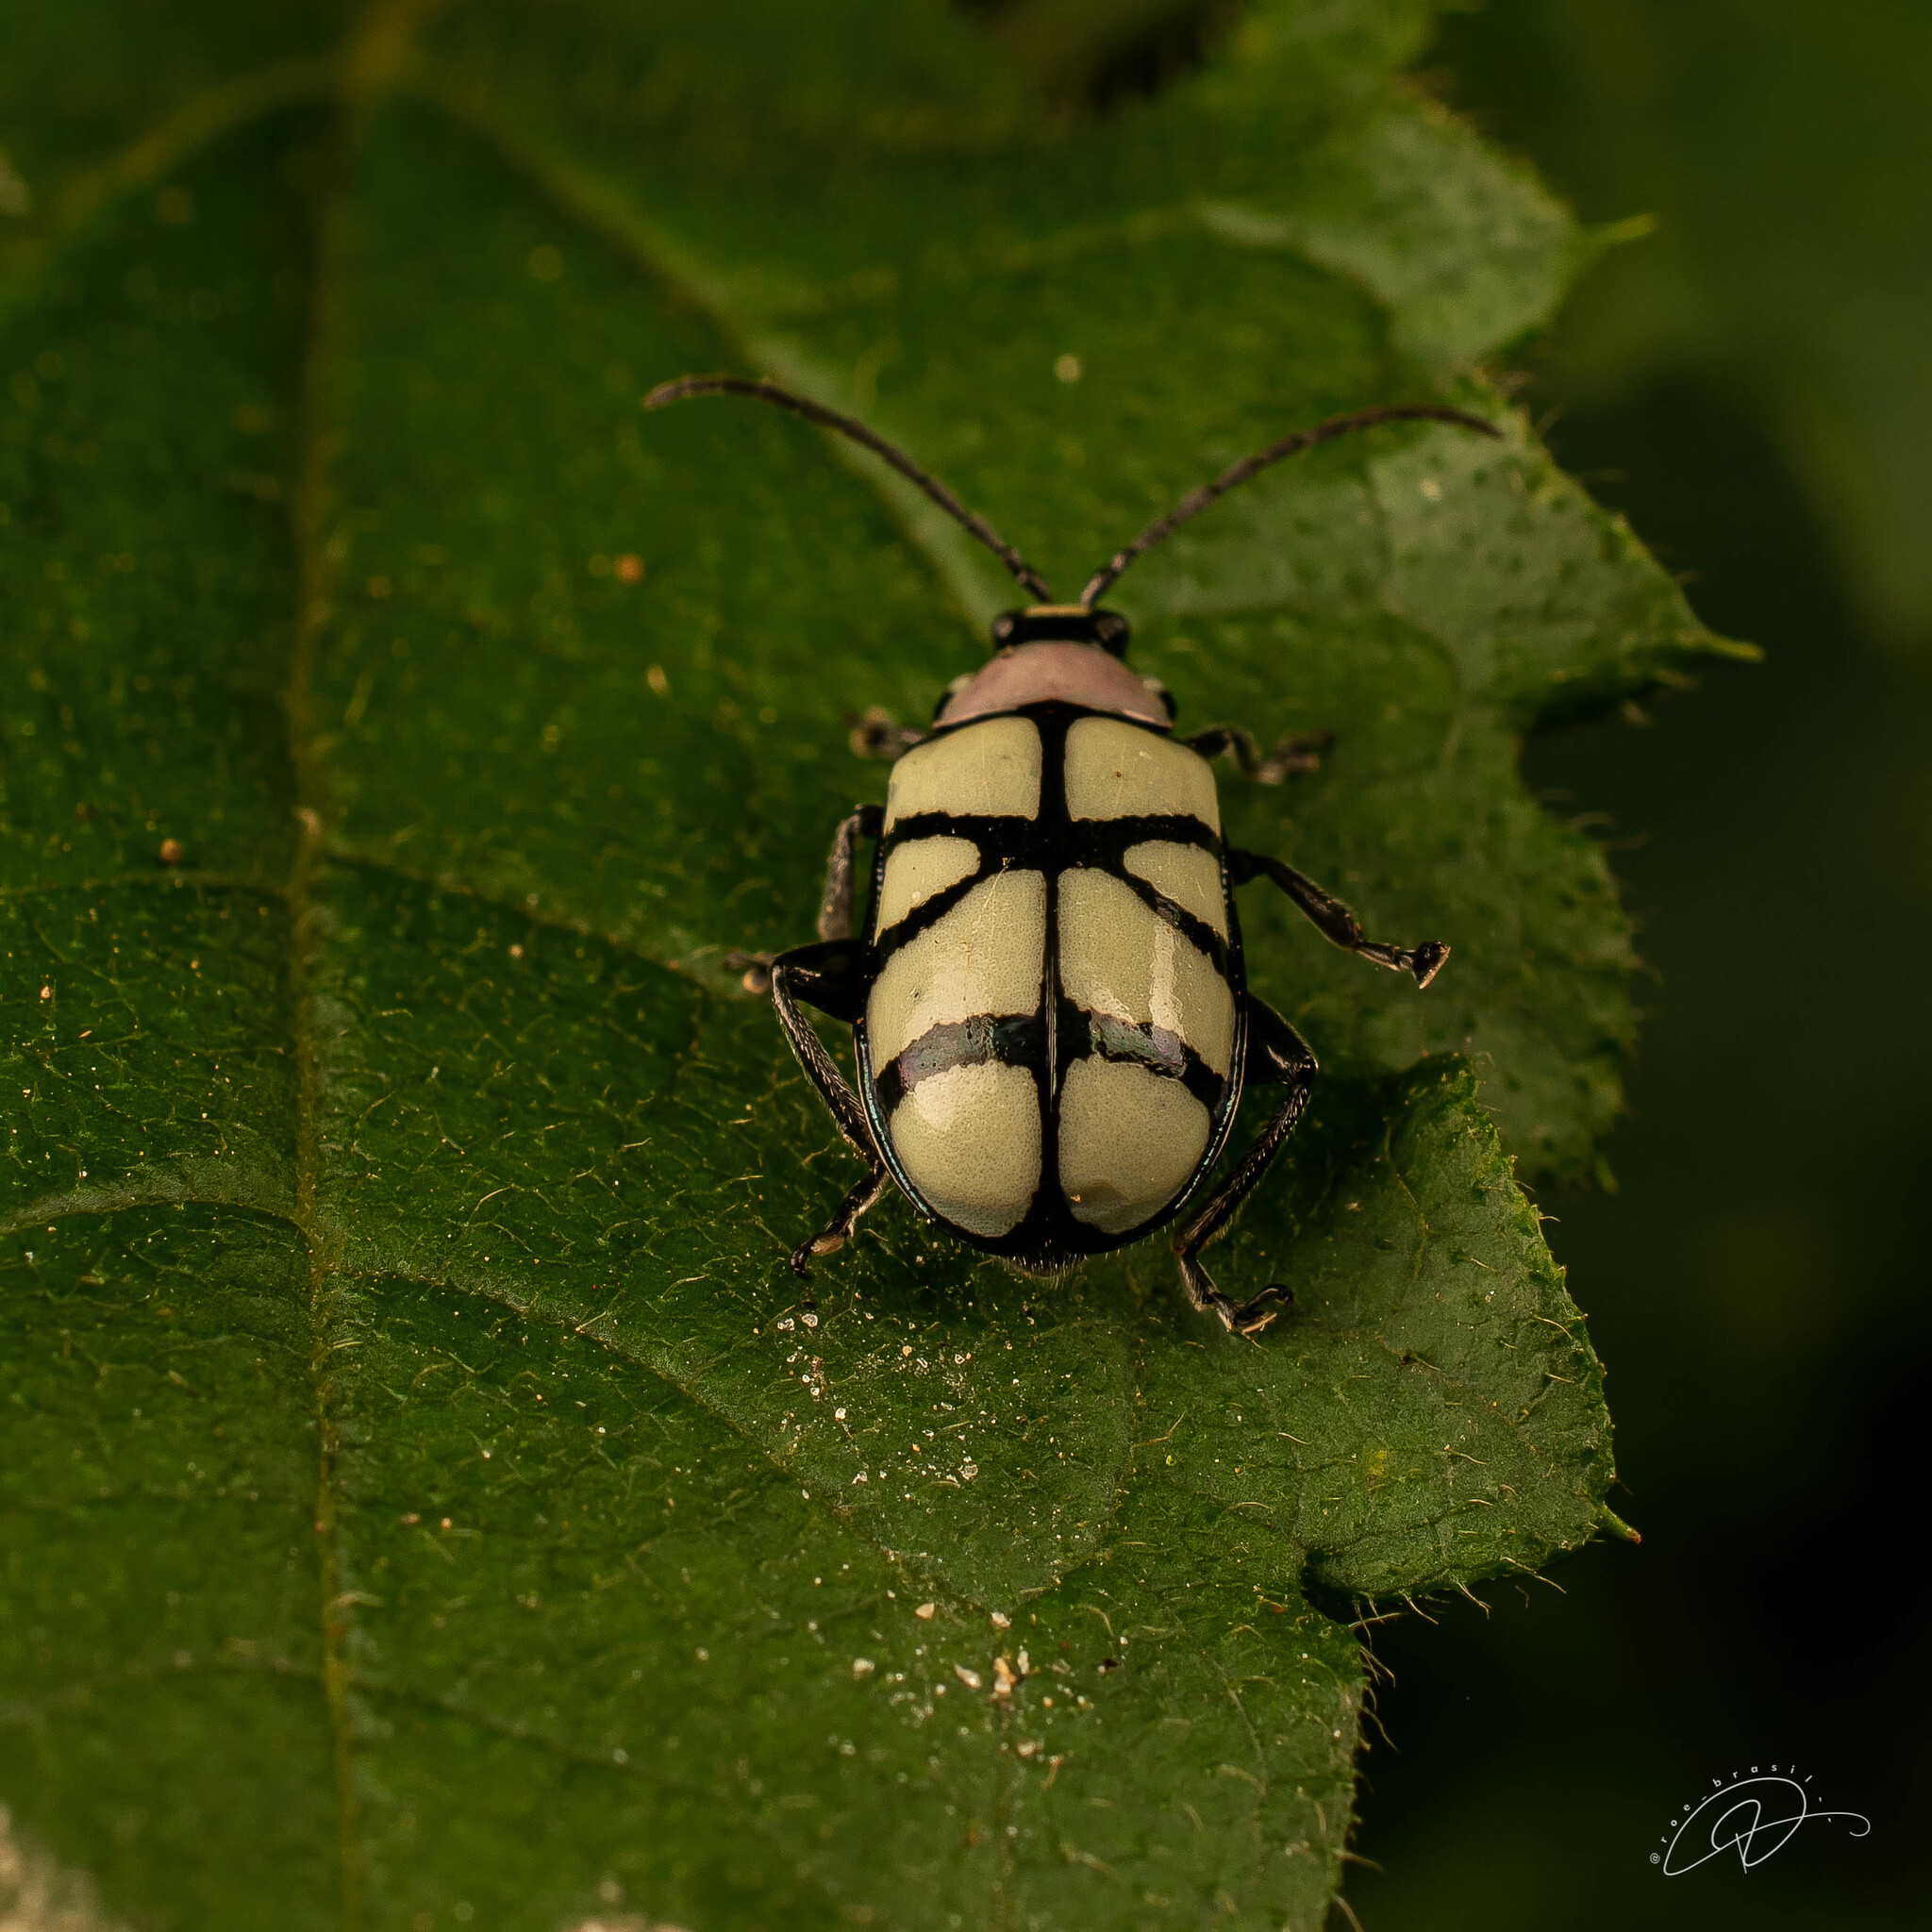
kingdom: Animalia
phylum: Arthropoda
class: Insecta
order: Coleoptera
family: Chrysomelidae
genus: Omophoita
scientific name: Omophoita
